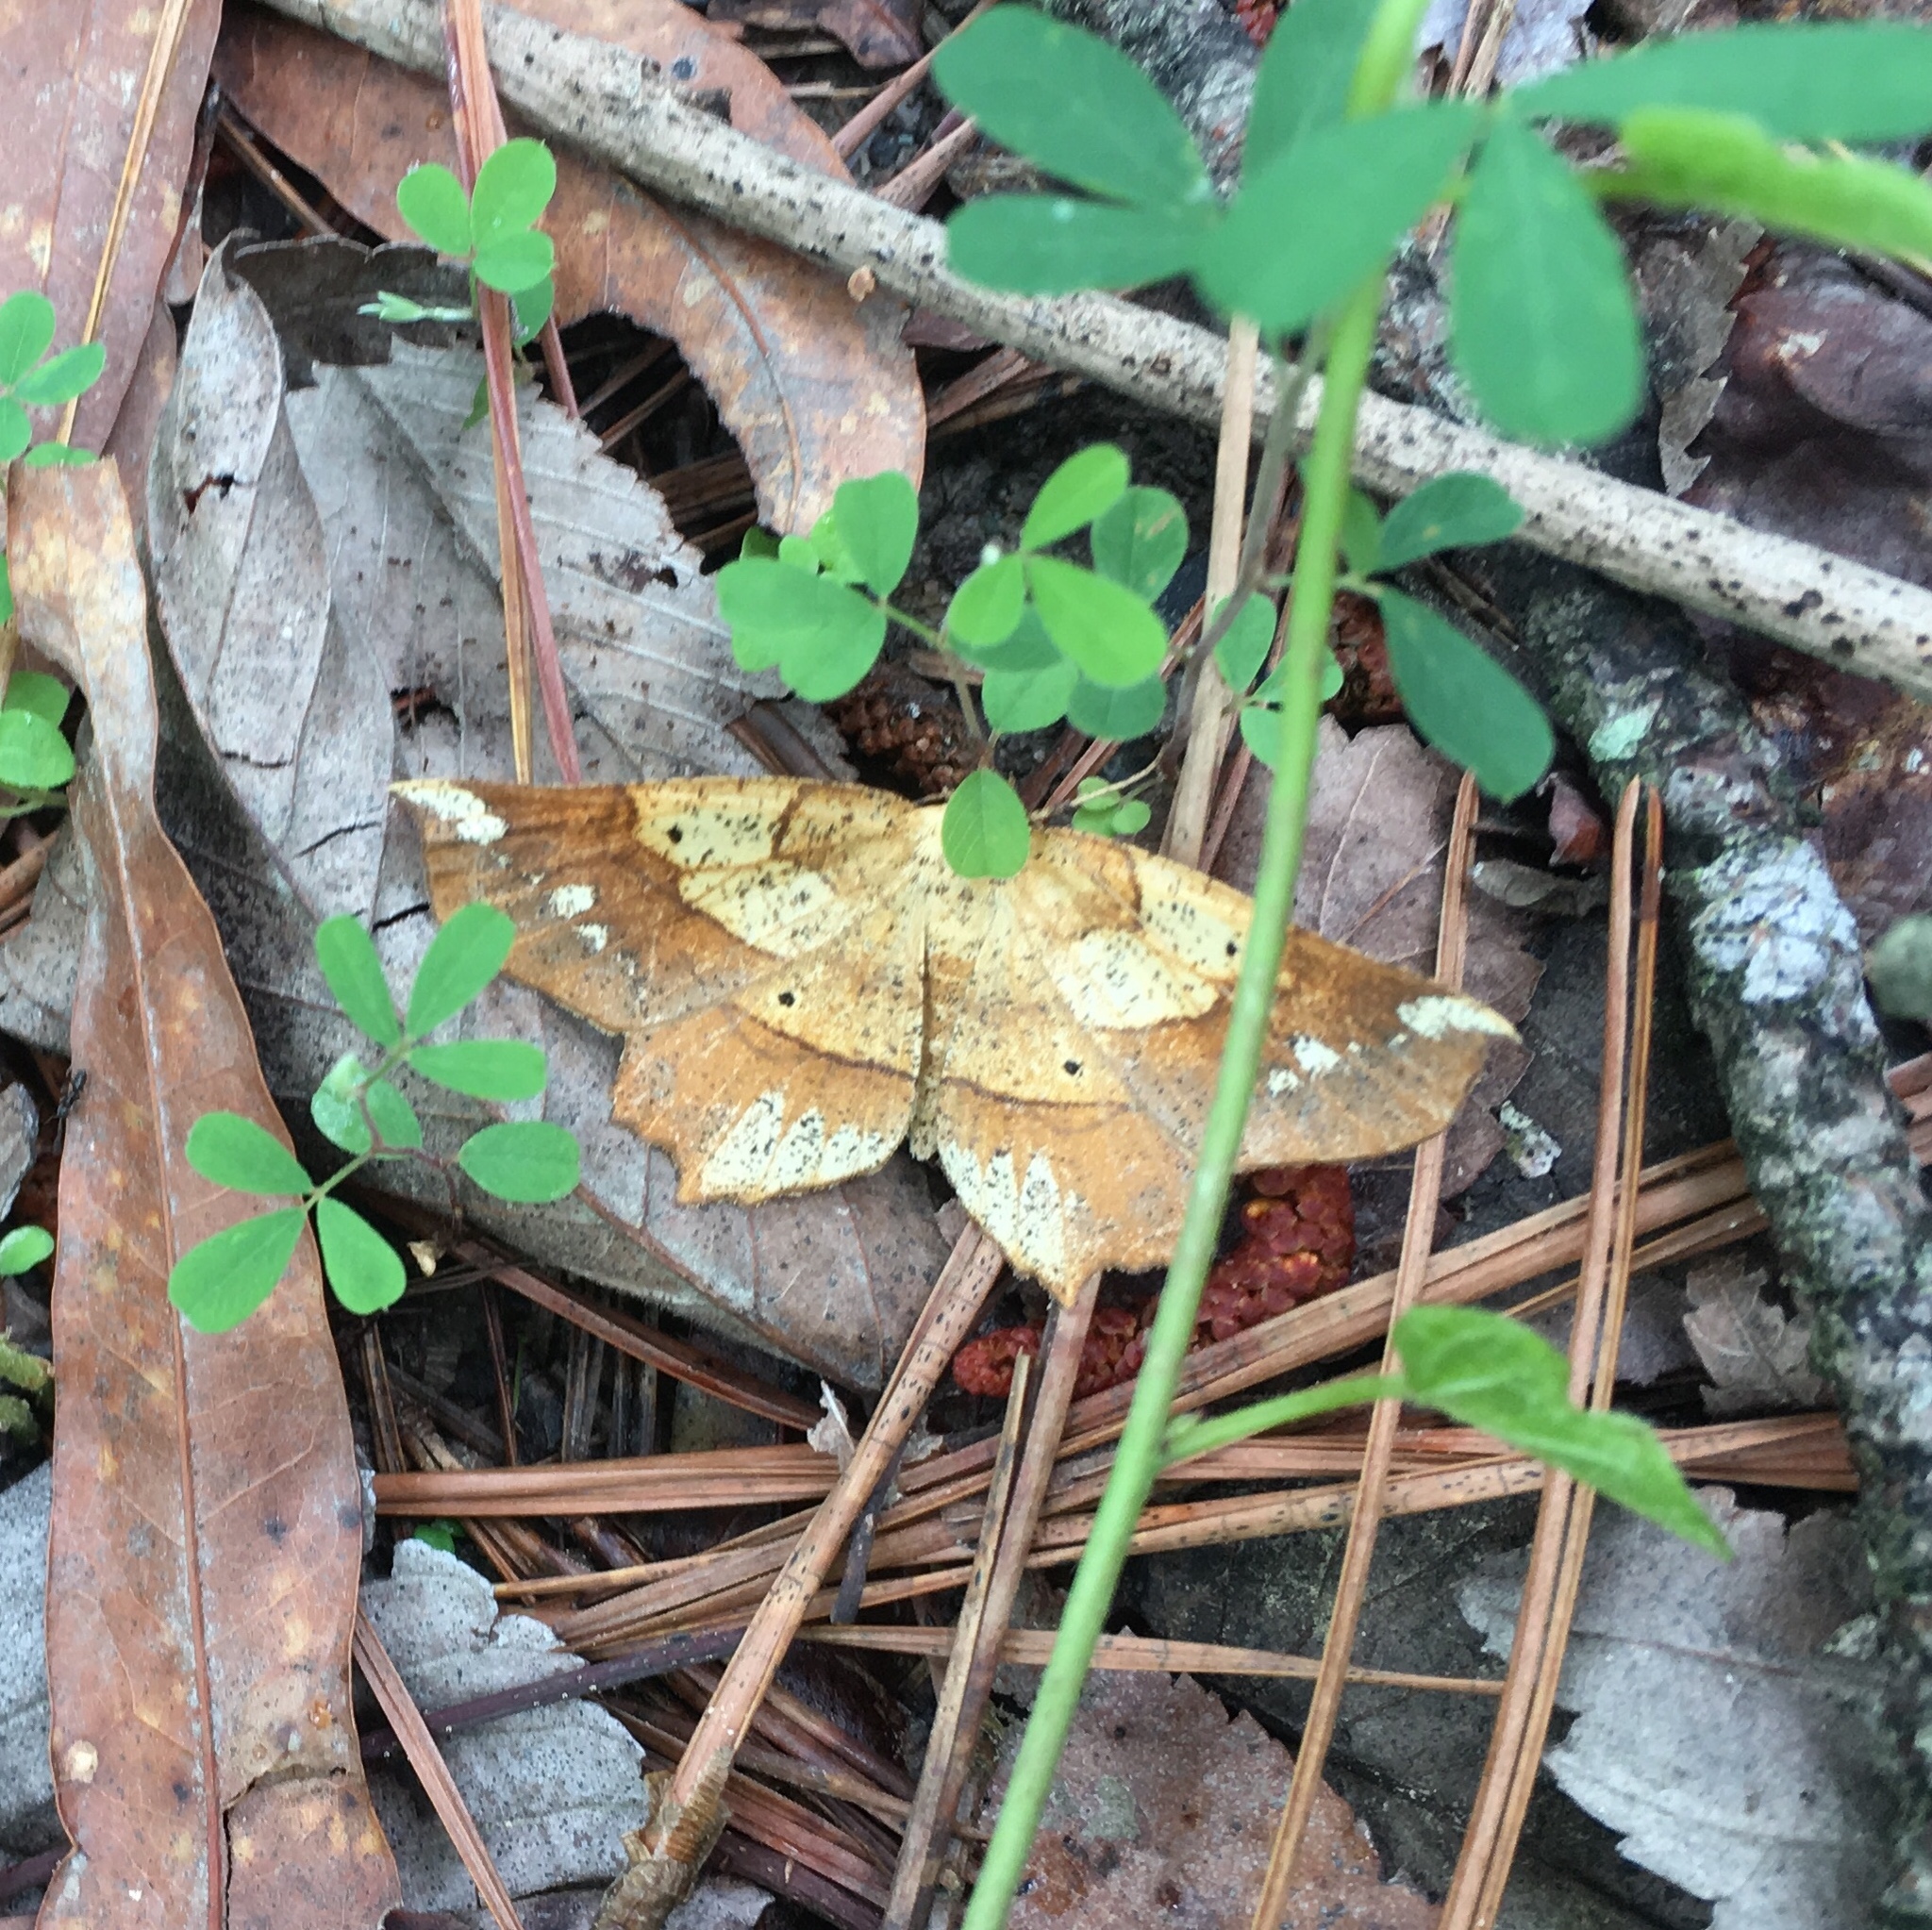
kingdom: Animalia
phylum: Arthropoda
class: Insecta
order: Lepidoptera
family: Geometridae
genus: Euchlaena
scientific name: Euchlaena amoenaria
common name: Deep yellow euchlaena
